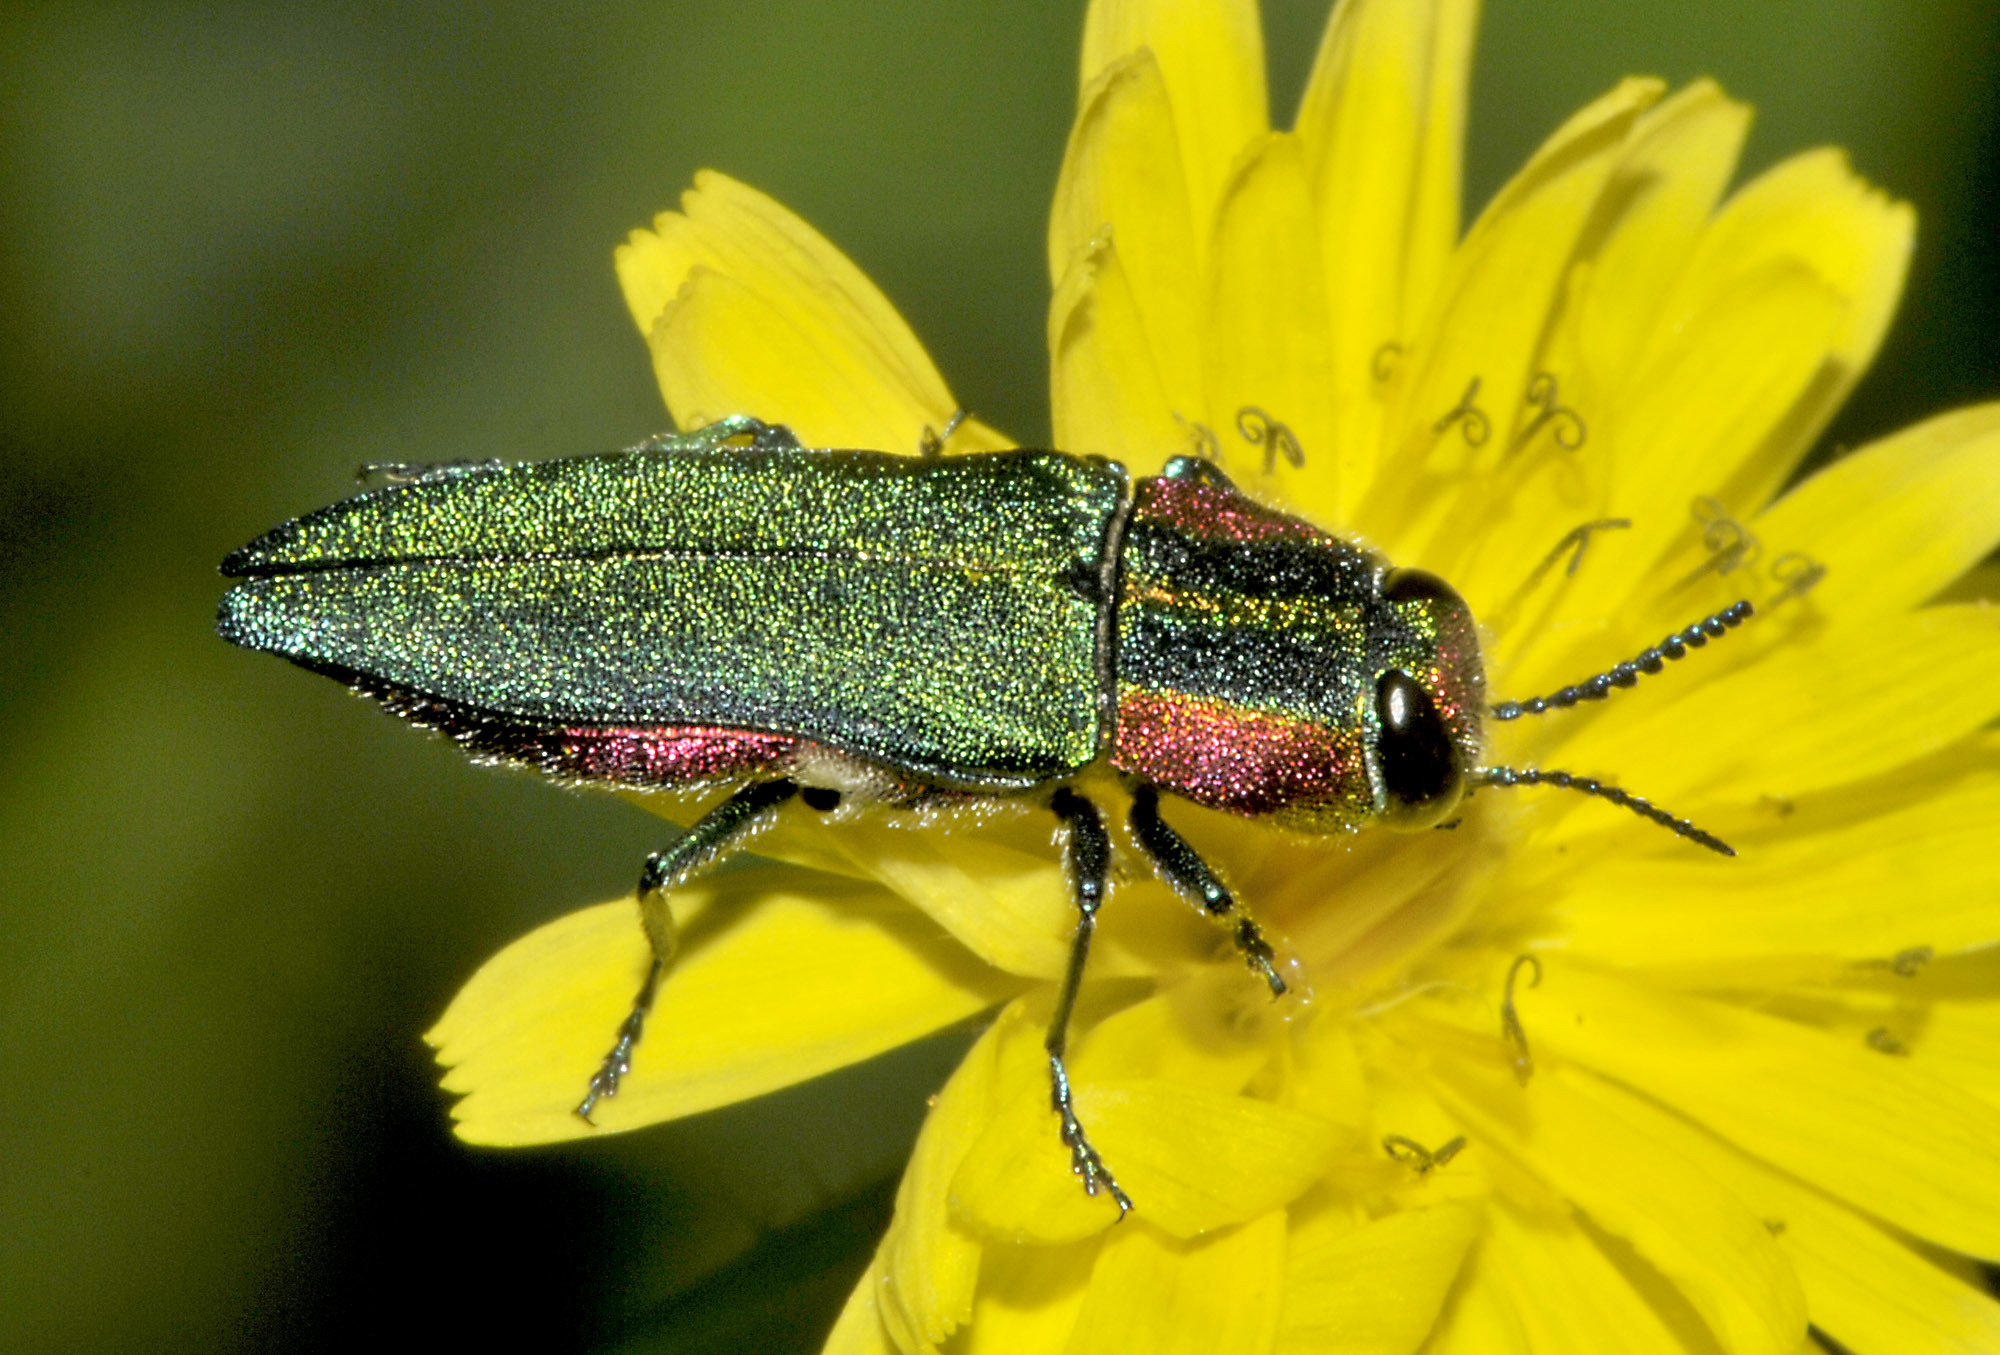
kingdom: Animalia
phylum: Arthropoda
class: Insecta
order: Coleoptera
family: Buprestidae
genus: Anthaxia
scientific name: Anthaxia hungarica
